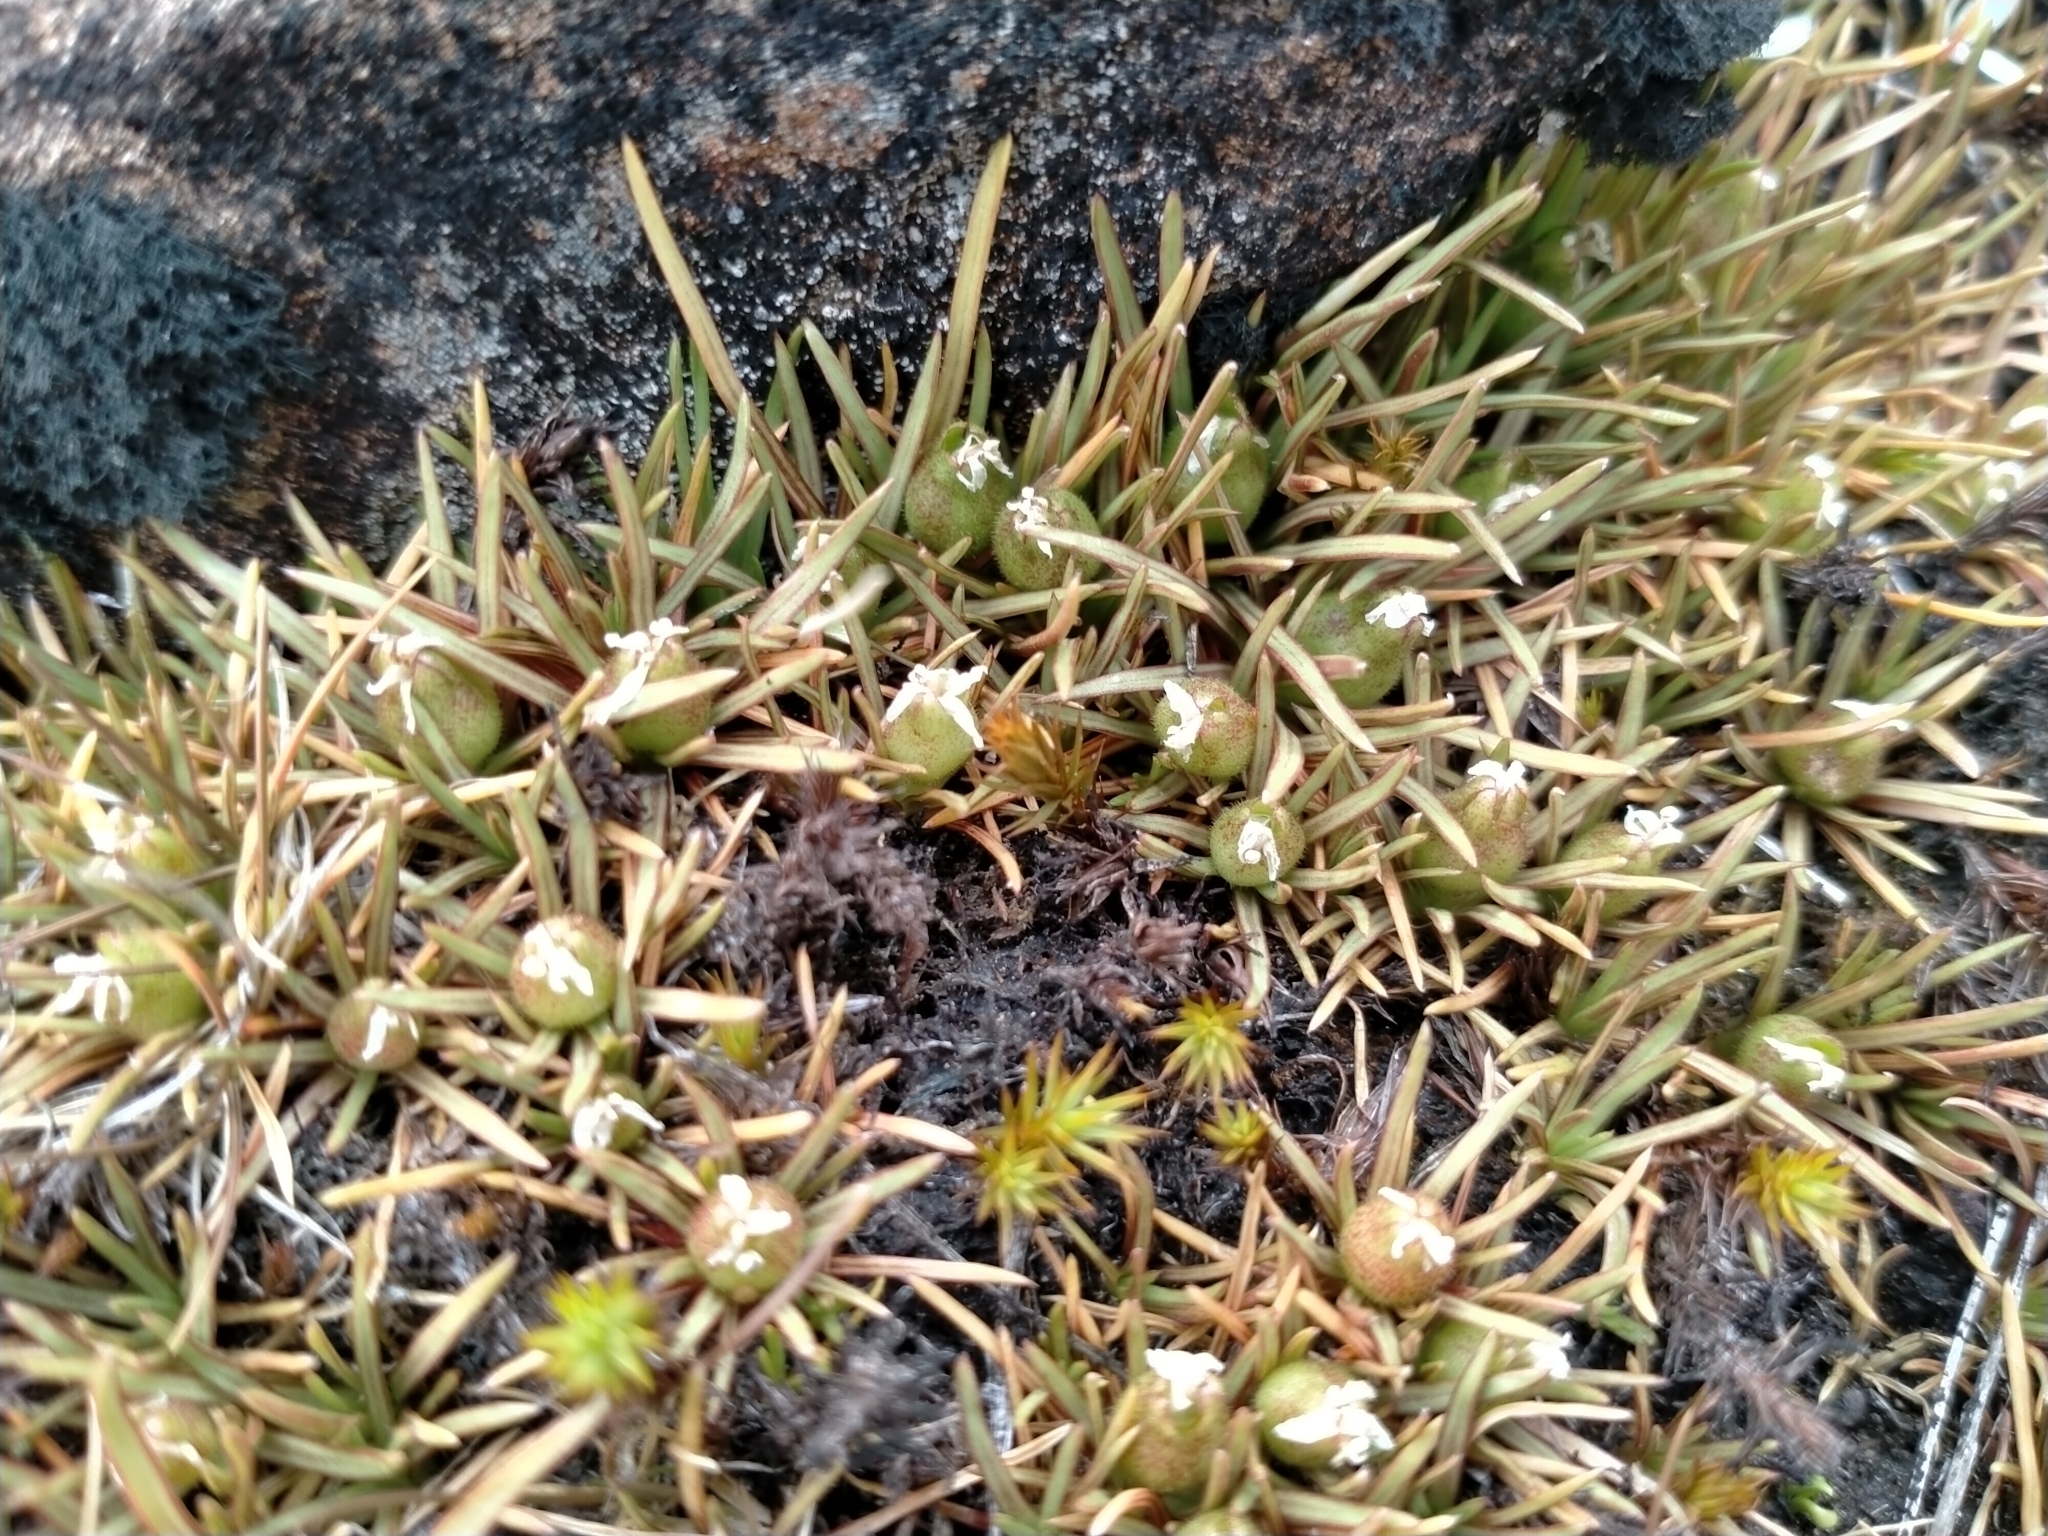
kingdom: Plantae
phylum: Tracheophyta
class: Magnoliopsida
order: Asterales
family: Stylidiaceae
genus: Oreostylidium
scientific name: Oreostylidium subulatum
